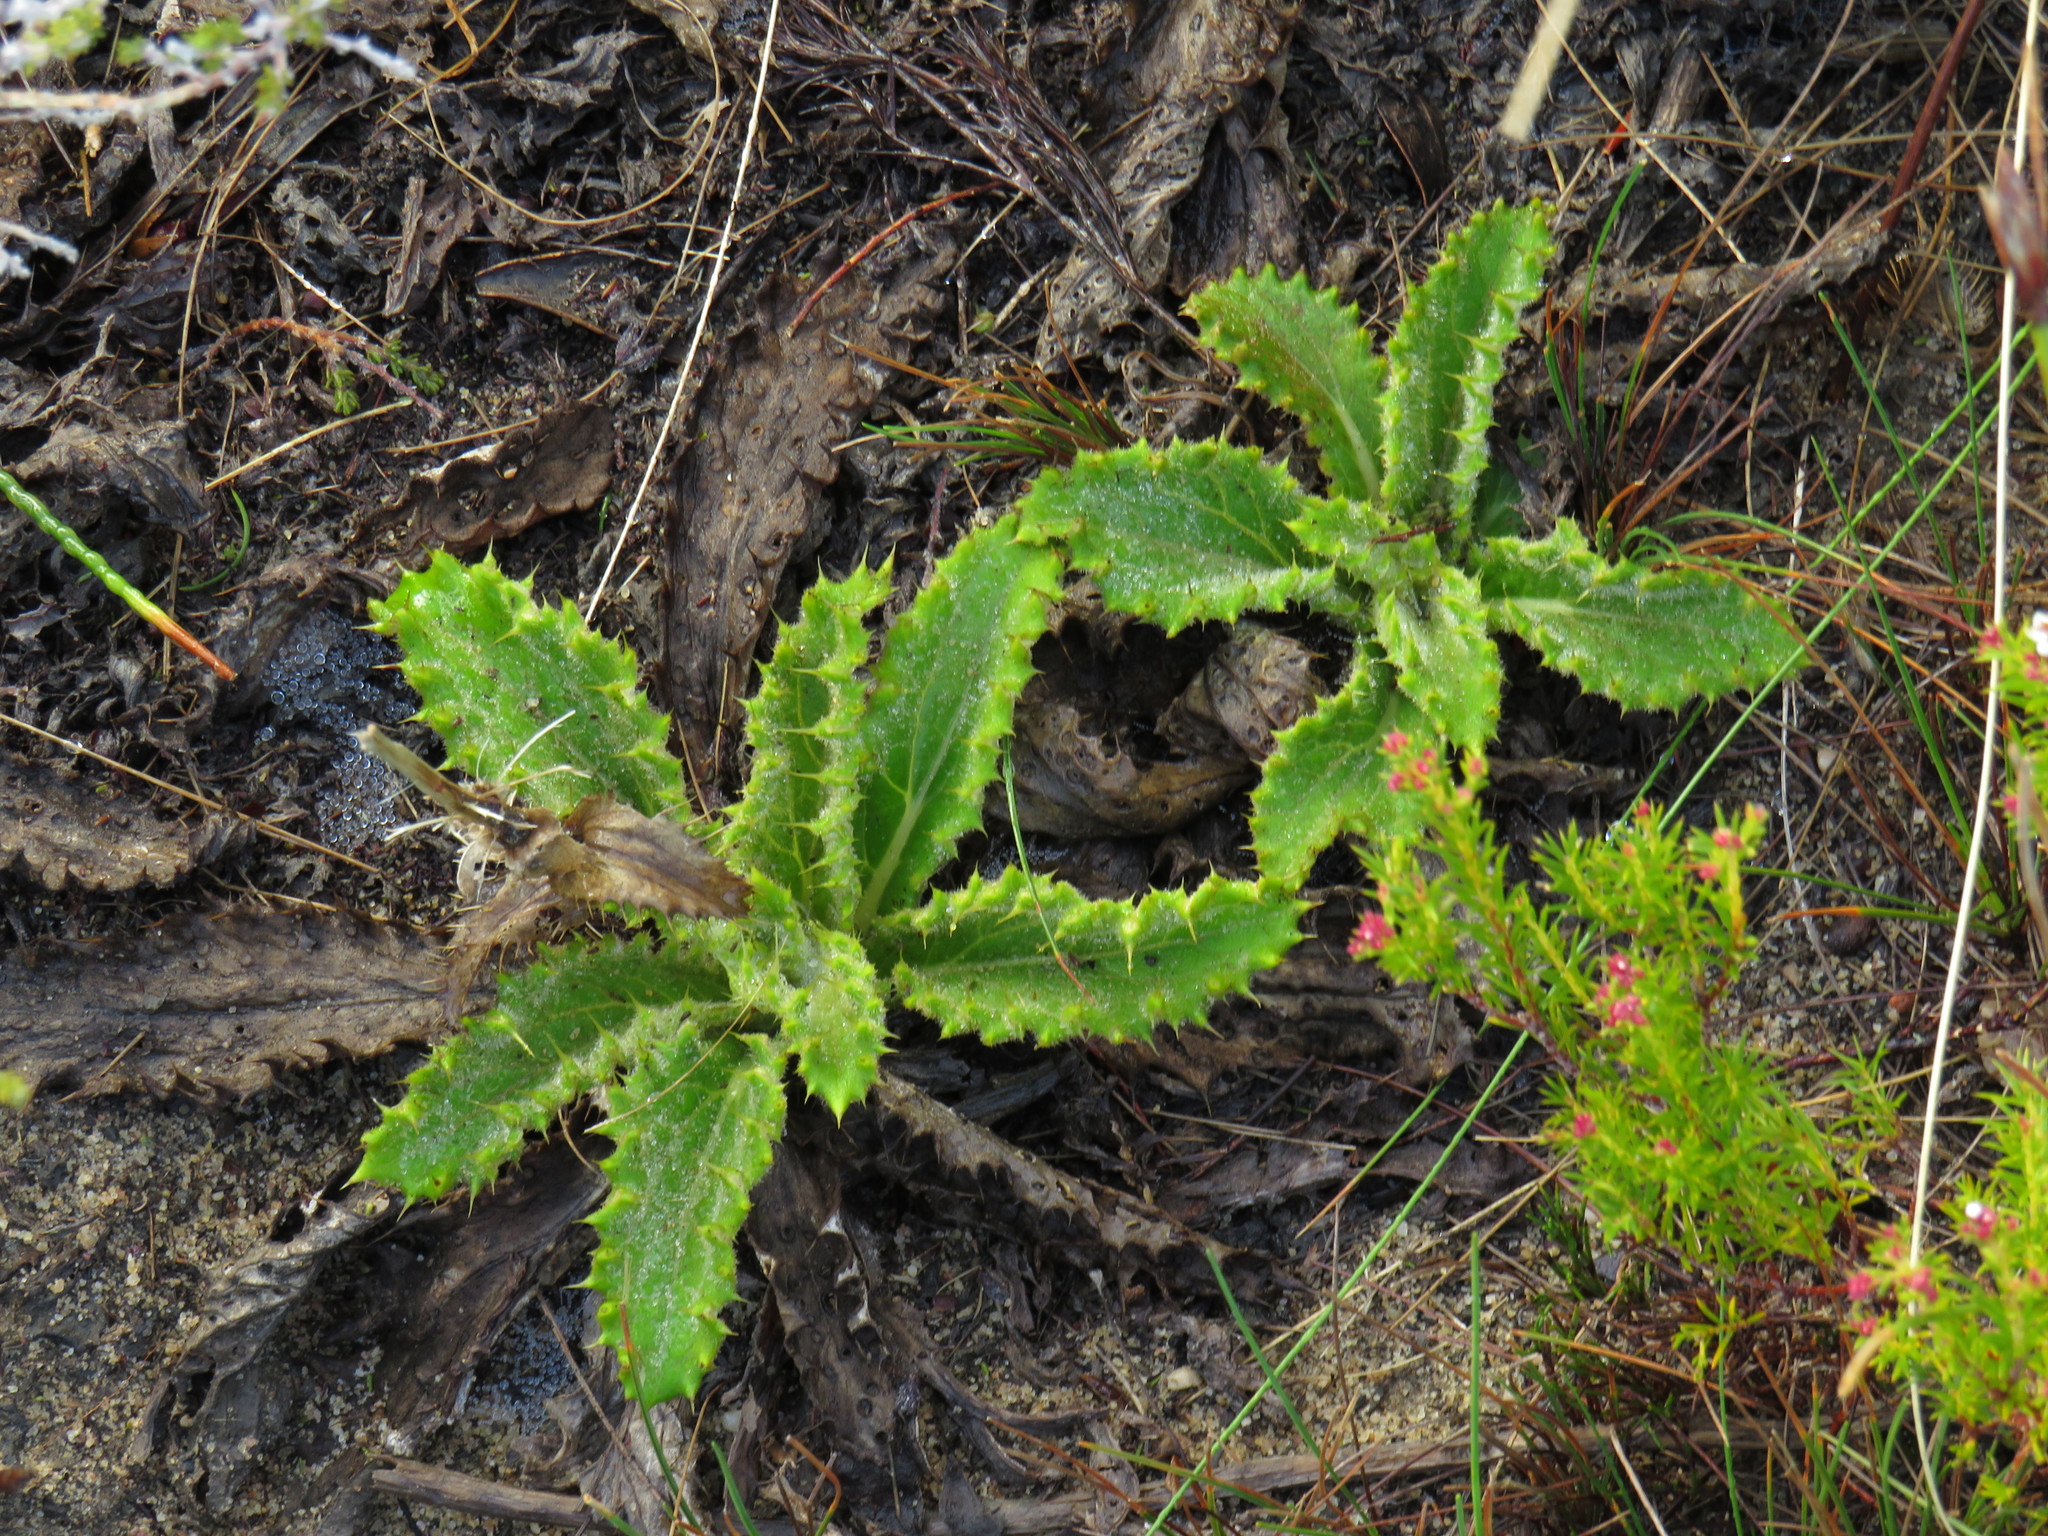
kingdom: Plantae
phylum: Tracheophyta
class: Magnoliopsida
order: Asterales
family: Asteraceae
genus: Berkheya
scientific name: Berkheya armata
